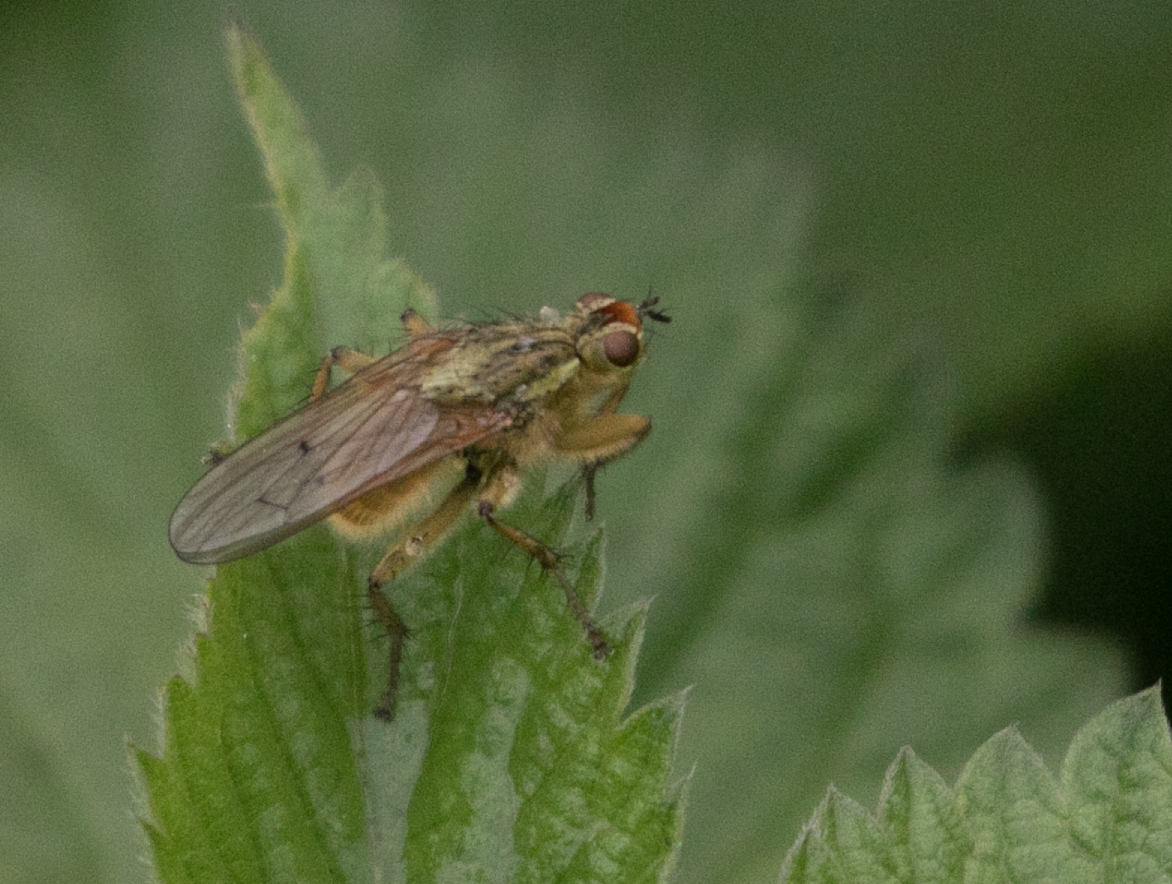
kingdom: Animalia
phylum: Arthropoda
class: Insecta
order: Diptera
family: Scathophagidae
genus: Scathophaga
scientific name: Scathophaga stercoraria
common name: Yellow dung fly
